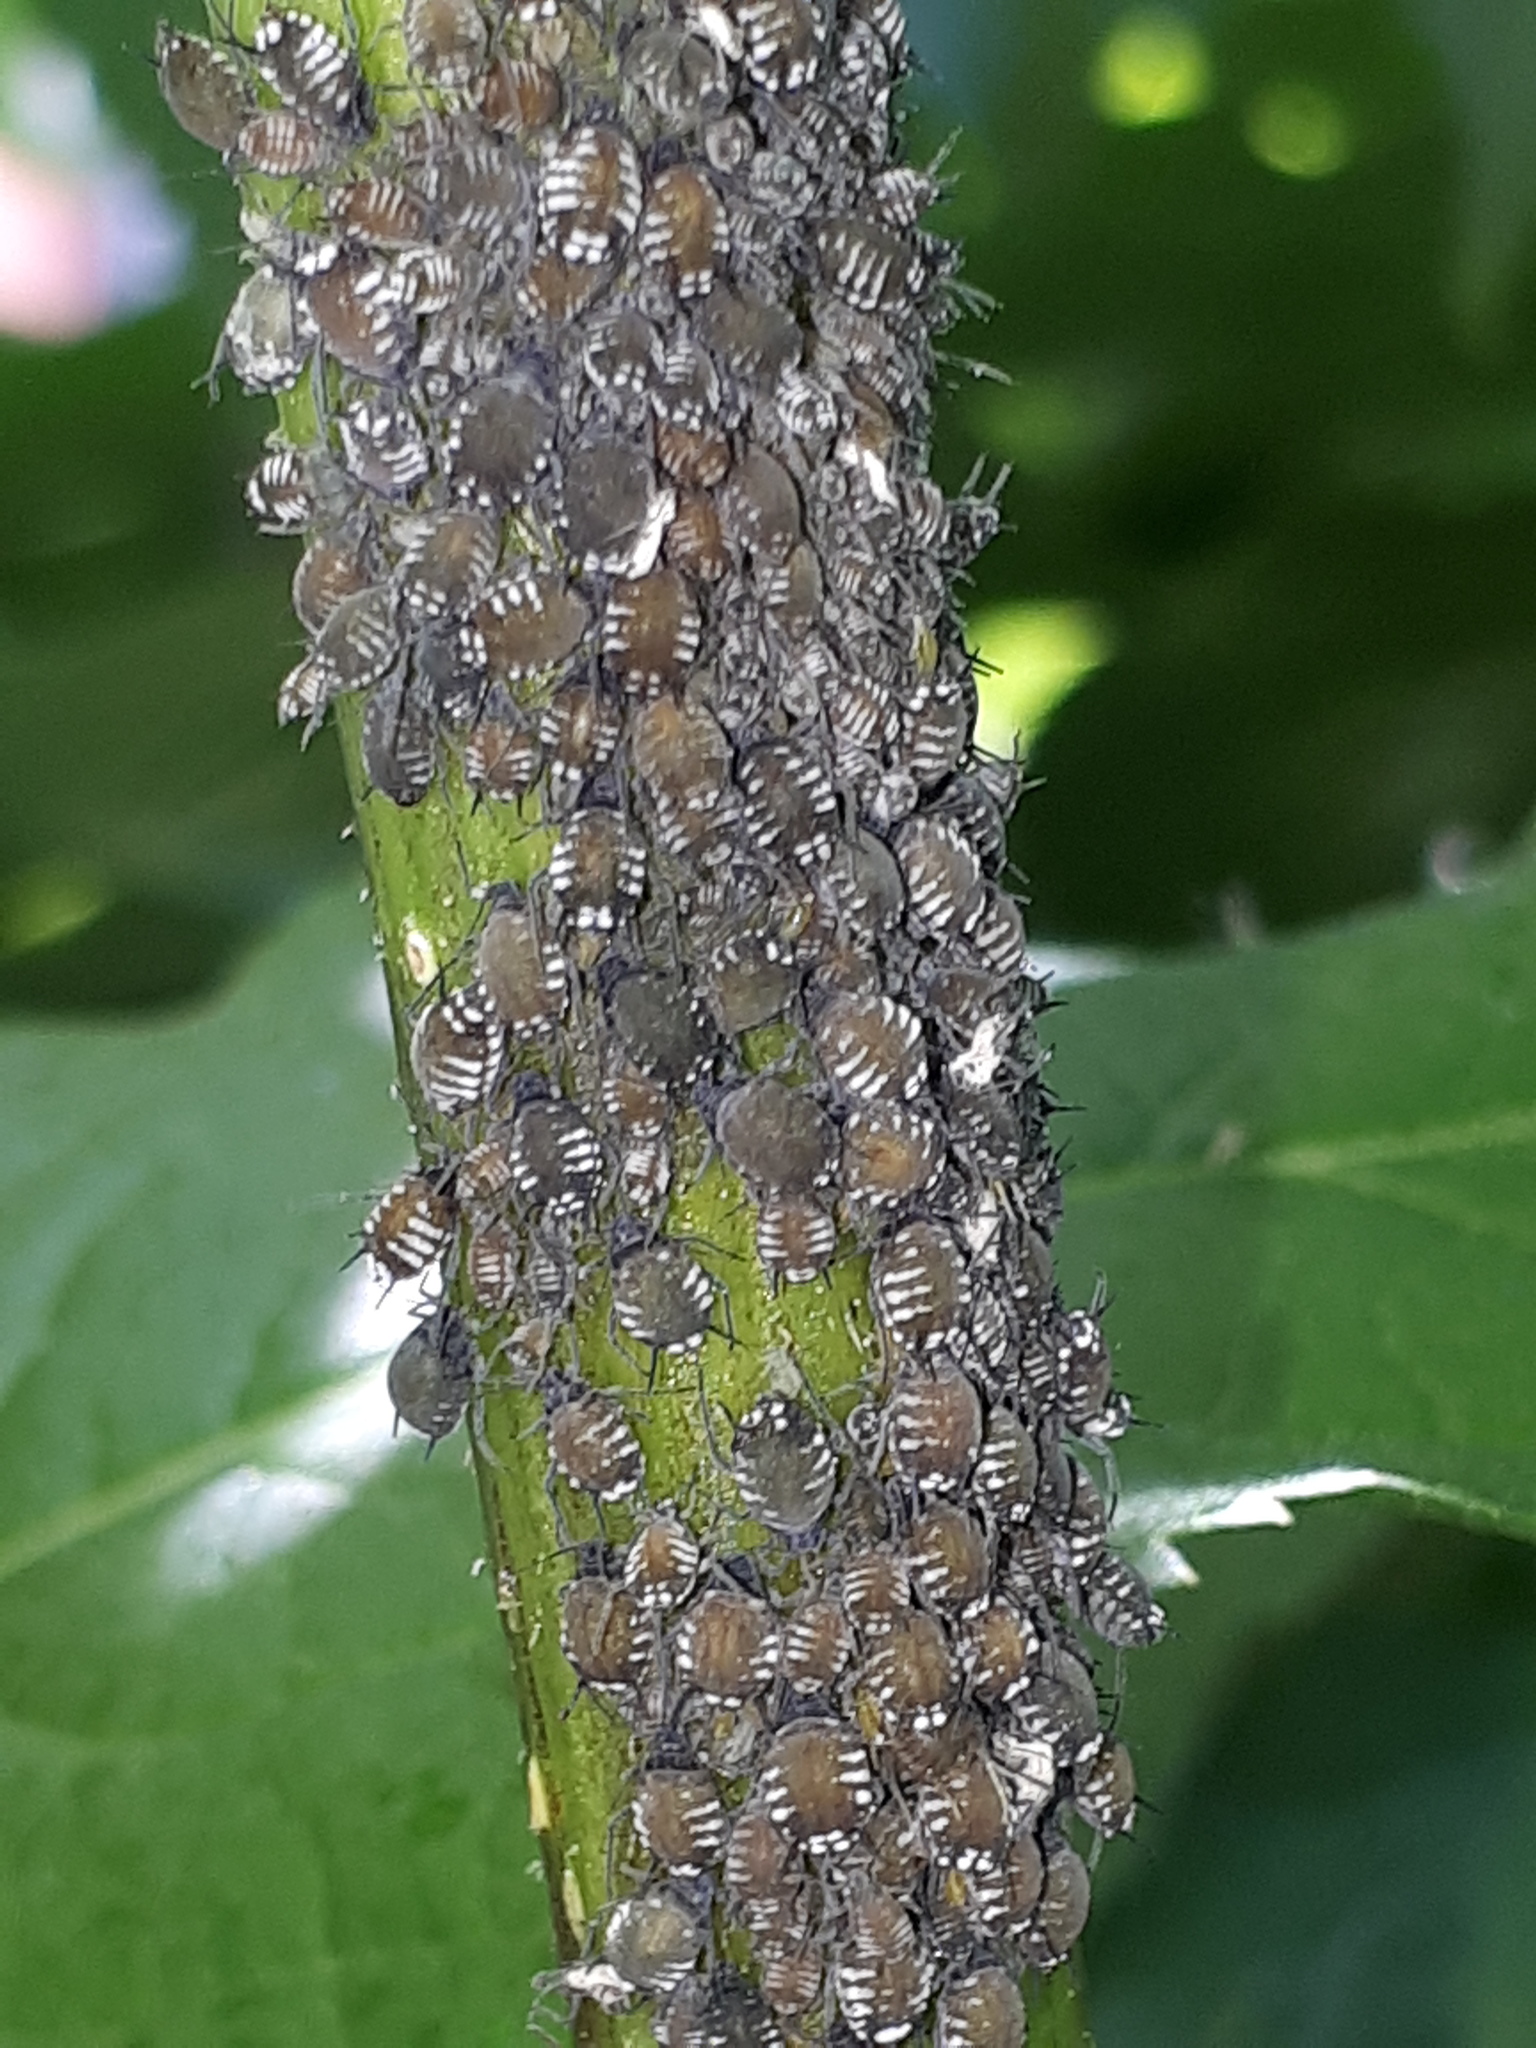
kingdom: Animalia
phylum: Arthropoda
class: Insecta
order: Hemiptera
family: Aphididae
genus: Aphis
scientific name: Aphis sambuci
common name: Elder aphid
